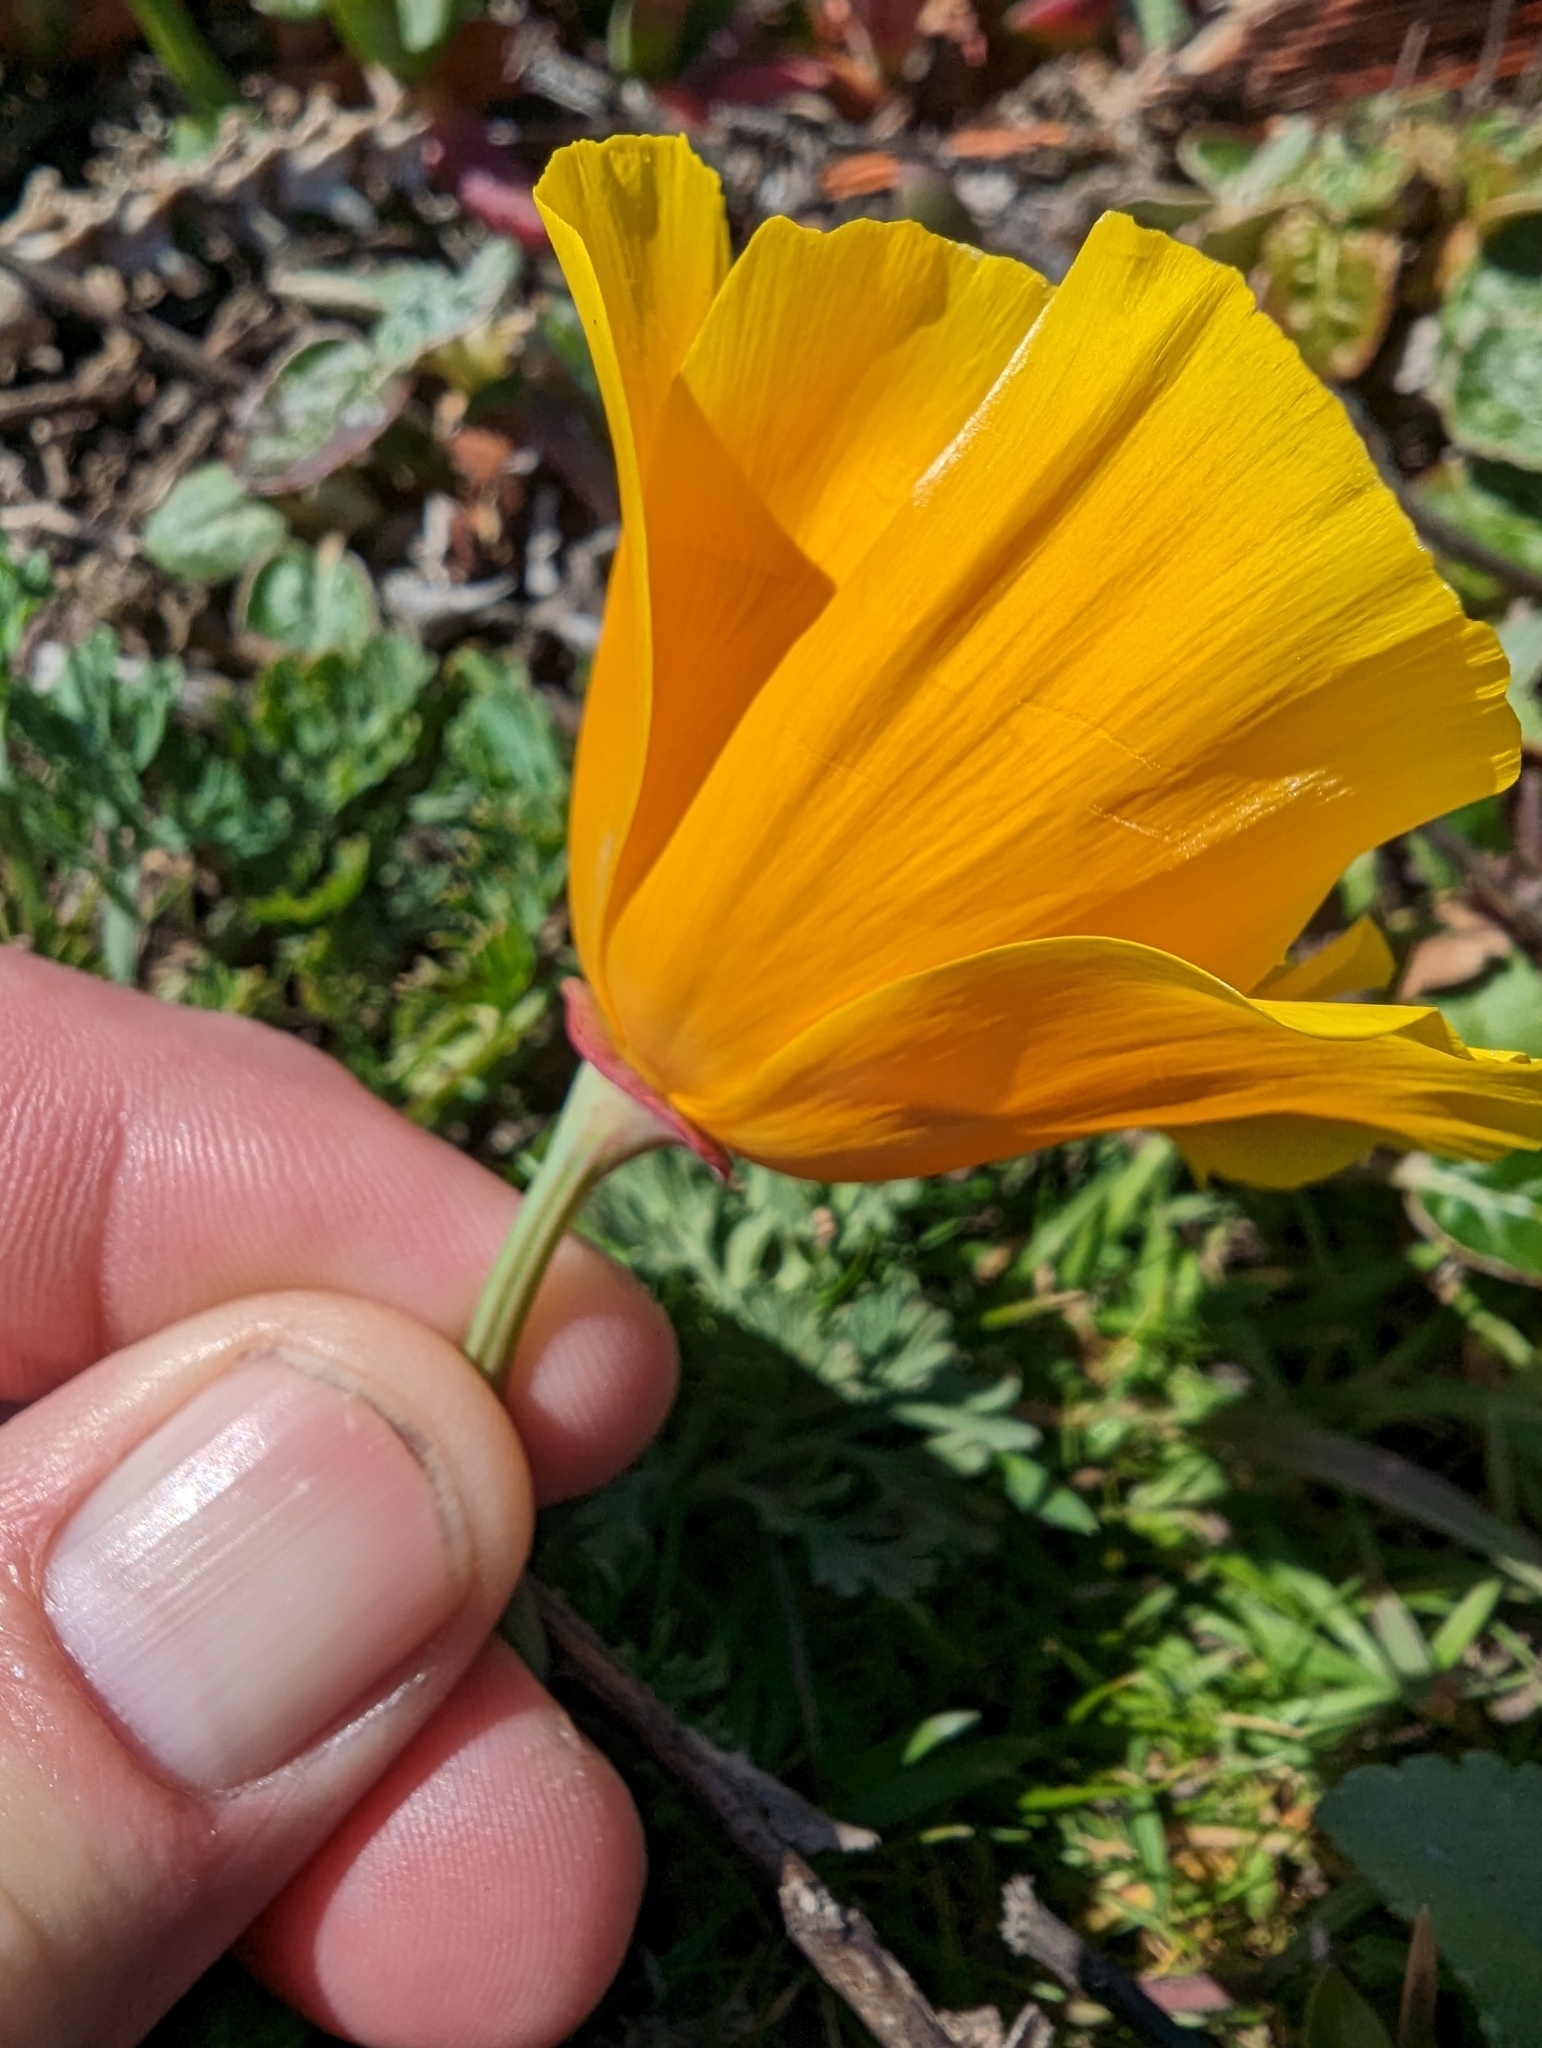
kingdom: Plantae
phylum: Tracheophyta
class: Magnoliopsida
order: Ranunculales
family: Papaveraceae
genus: Eschscholzia
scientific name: Eschscholzia californica
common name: California poppy
